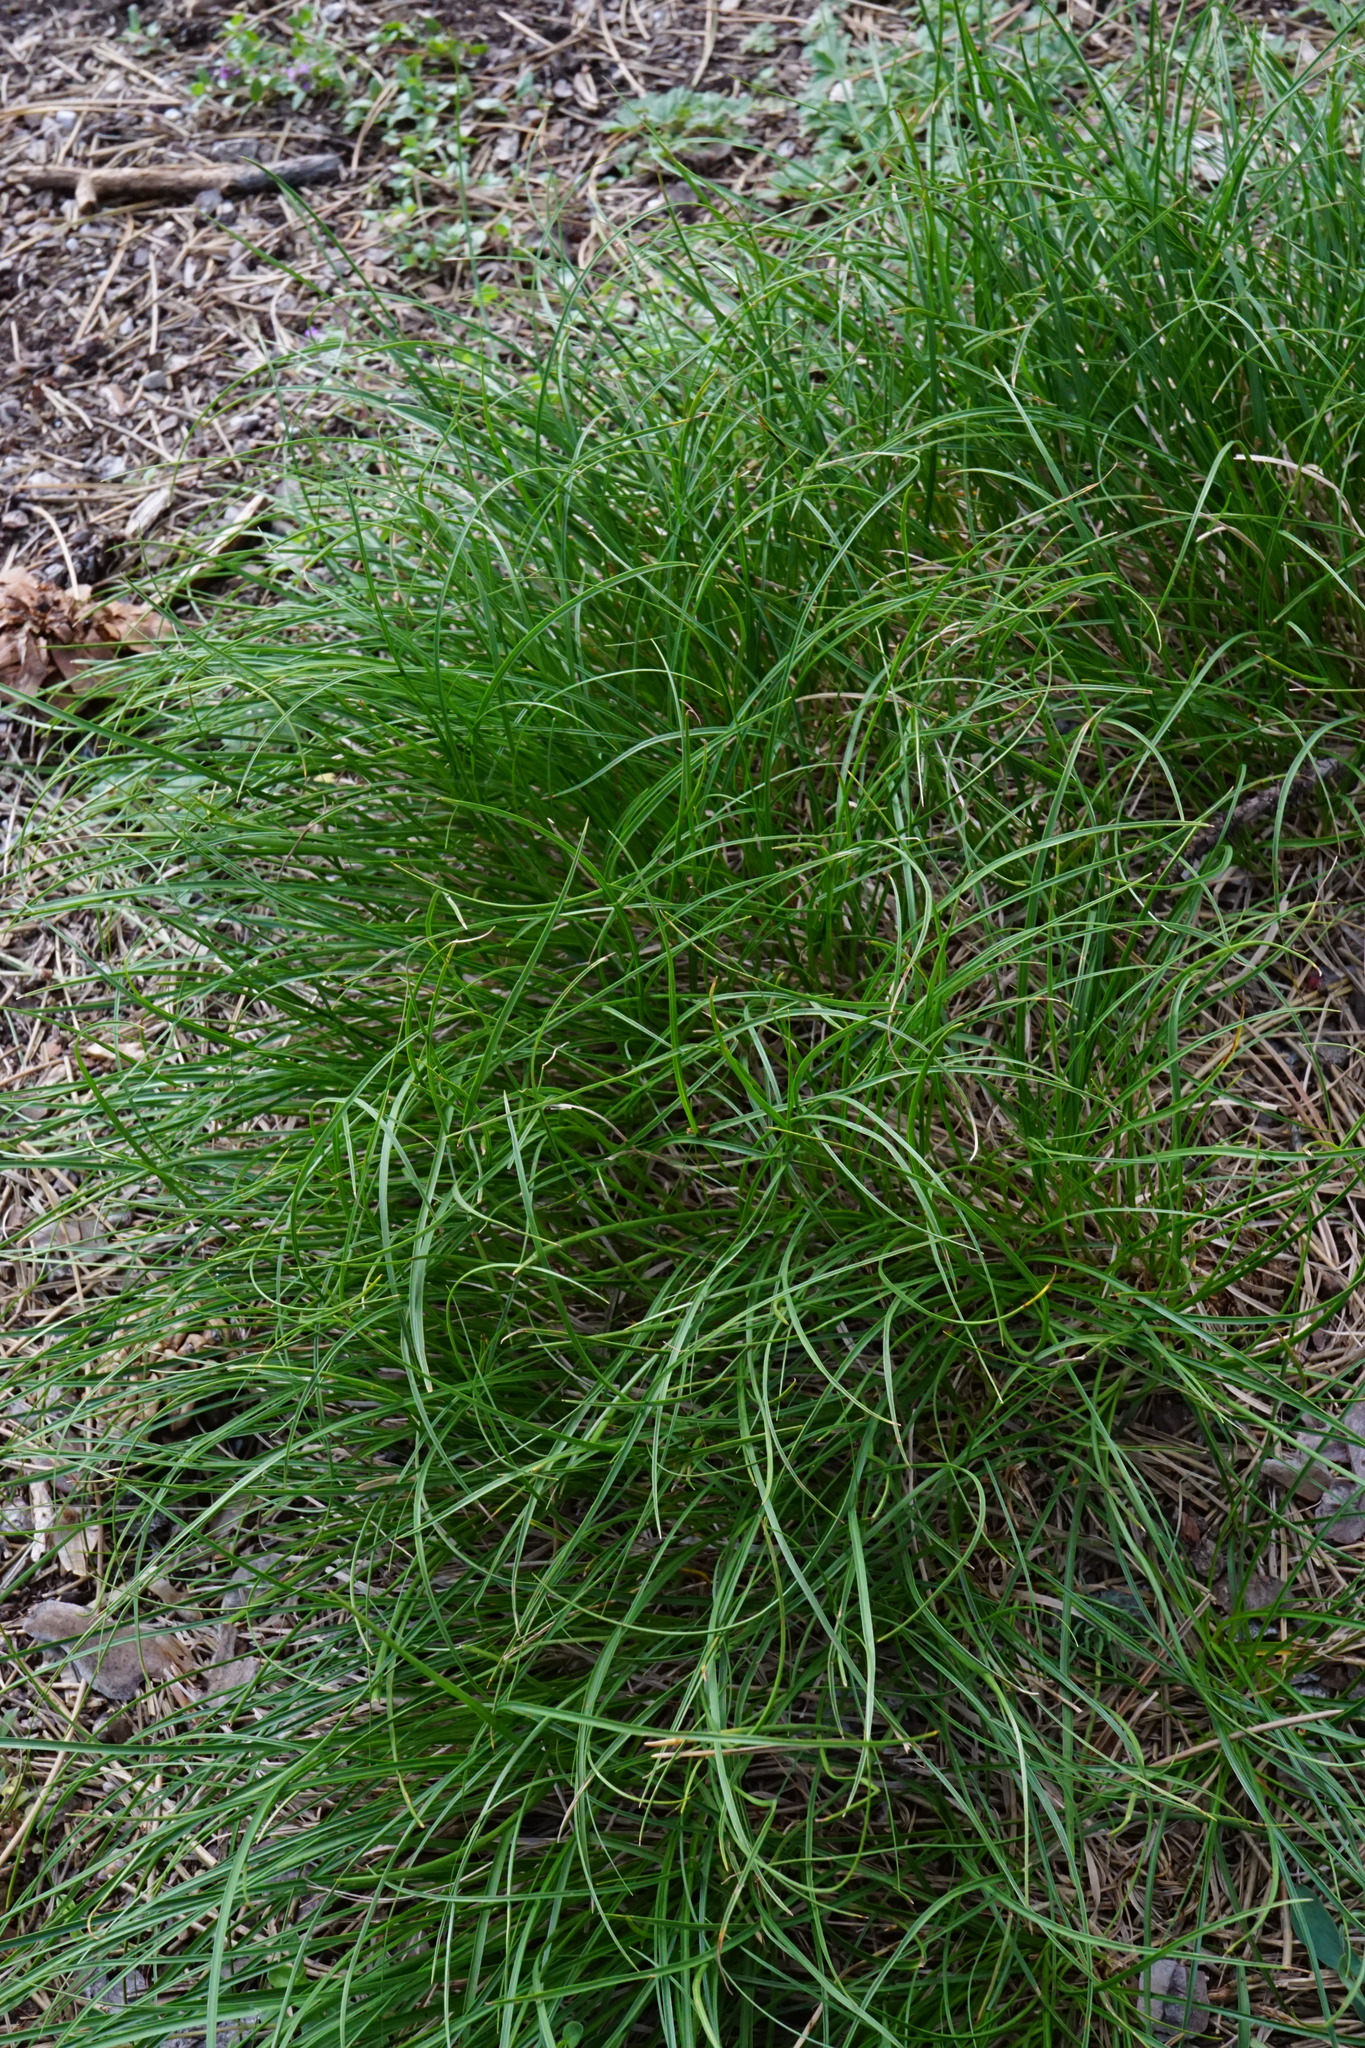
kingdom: Plantae
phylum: Tracheophyta
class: Liliopsida
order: Poales
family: Cyperaceae
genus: Carex
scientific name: Carex humilis
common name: Dwarf sedge
